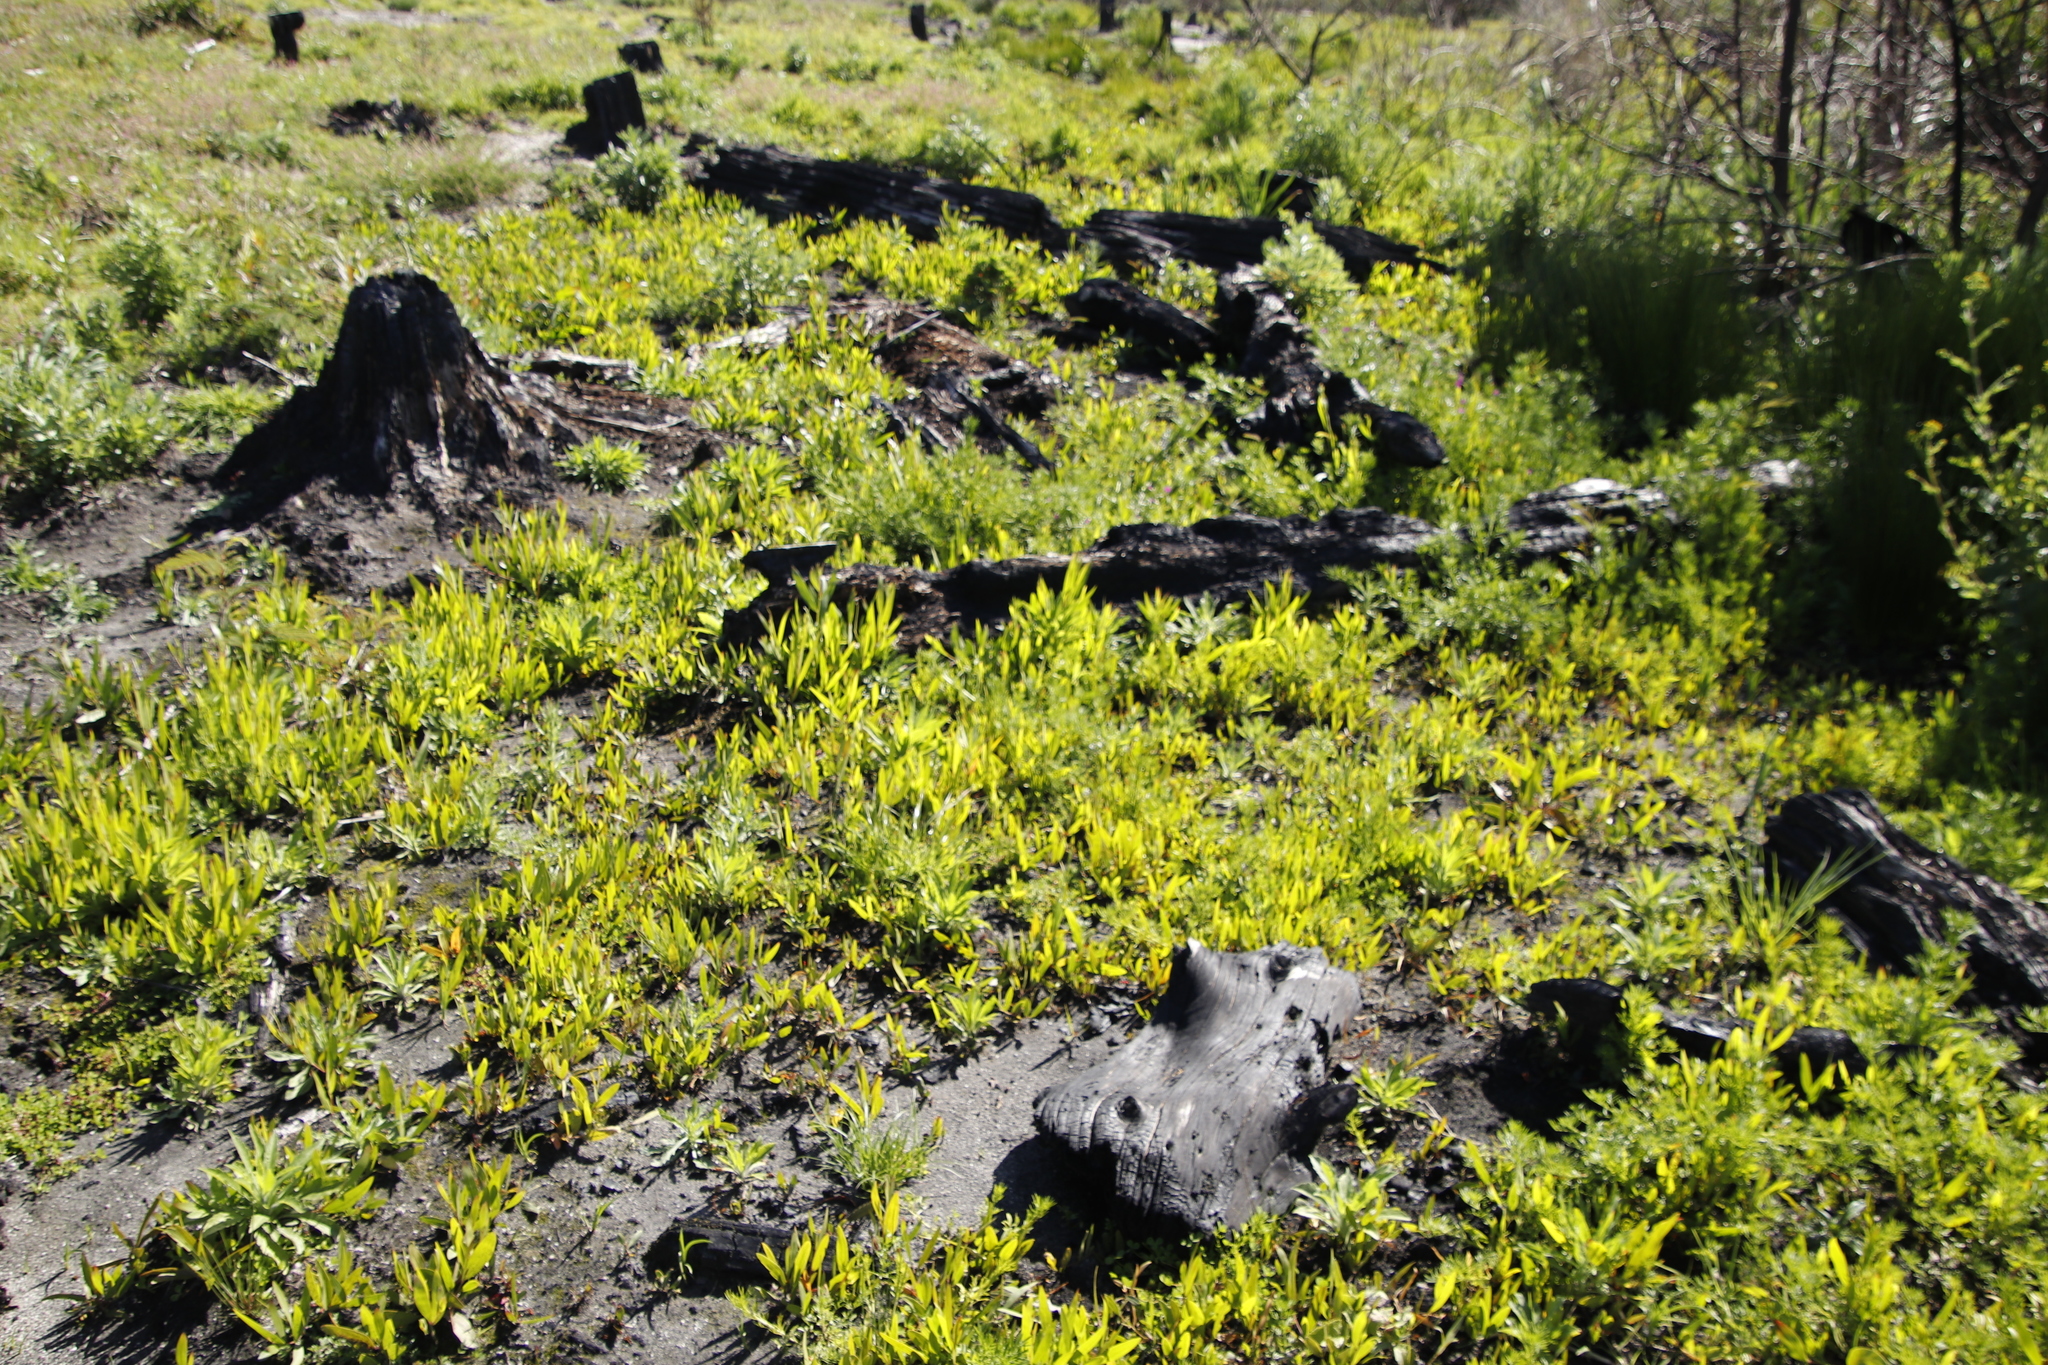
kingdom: Plantae
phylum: Tracheophyta
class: Magnoliopsida
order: Fabales
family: Fabaceae
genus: Acacia
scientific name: Acacia longifolia
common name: Sydney golden wattle
